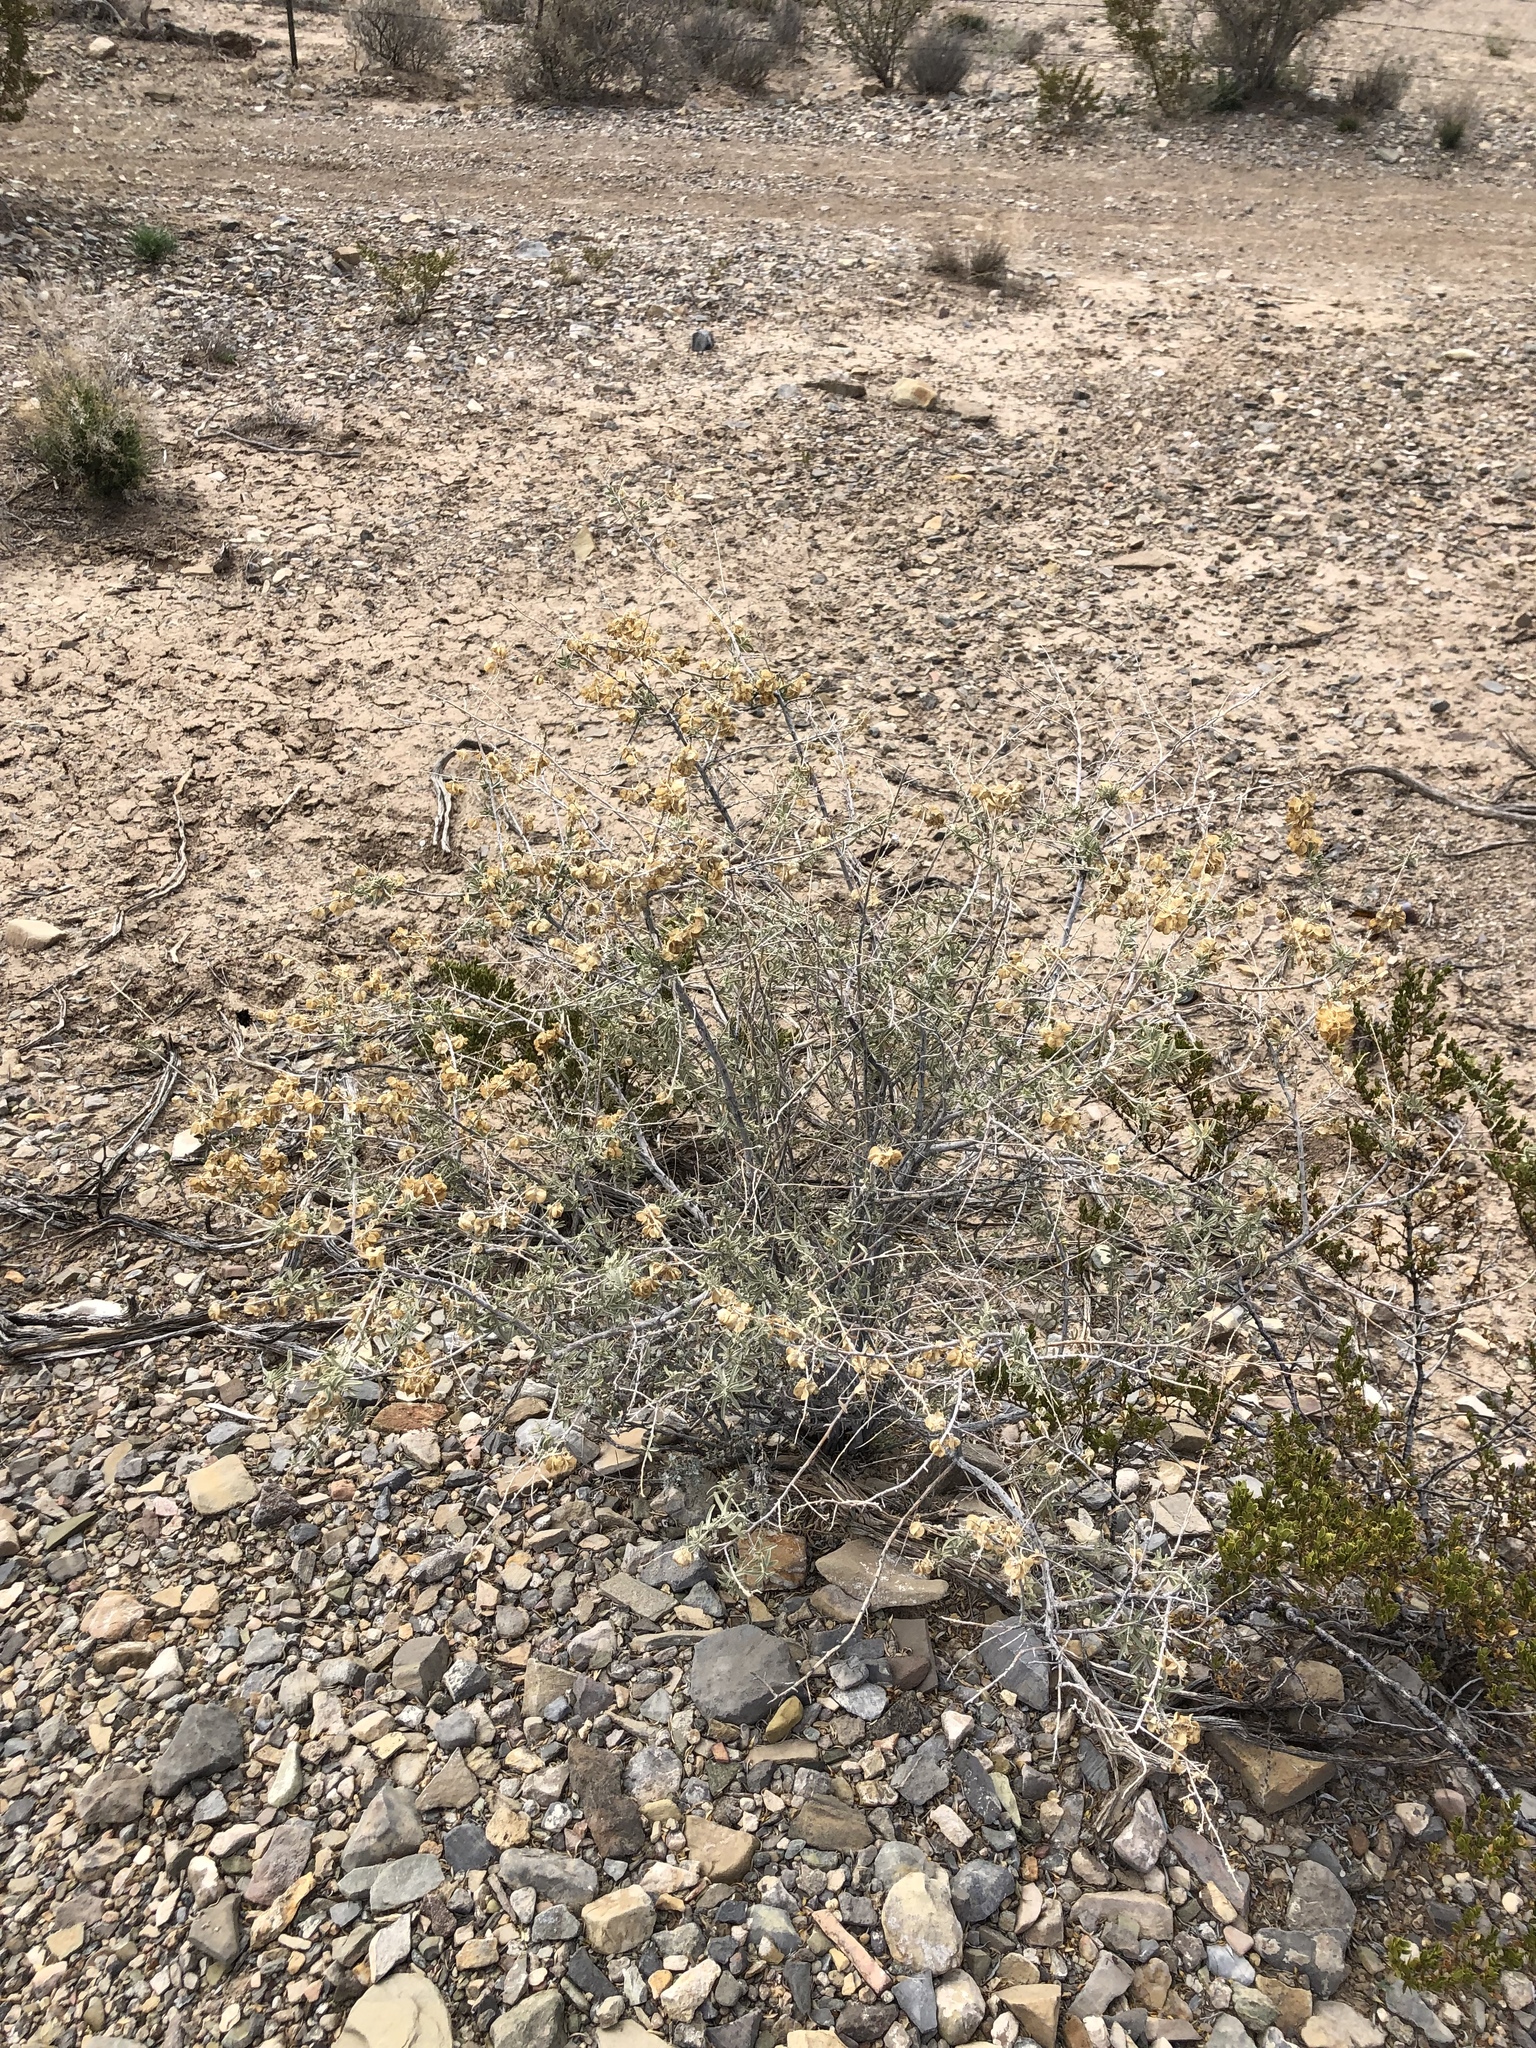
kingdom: Plantae
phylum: Tracheophyta
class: Magnoliopsida
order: Caryophyllales
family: Amaranthaceae
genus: Atriplex
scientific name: Atriplex canescens
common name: Four-wing saltbush
